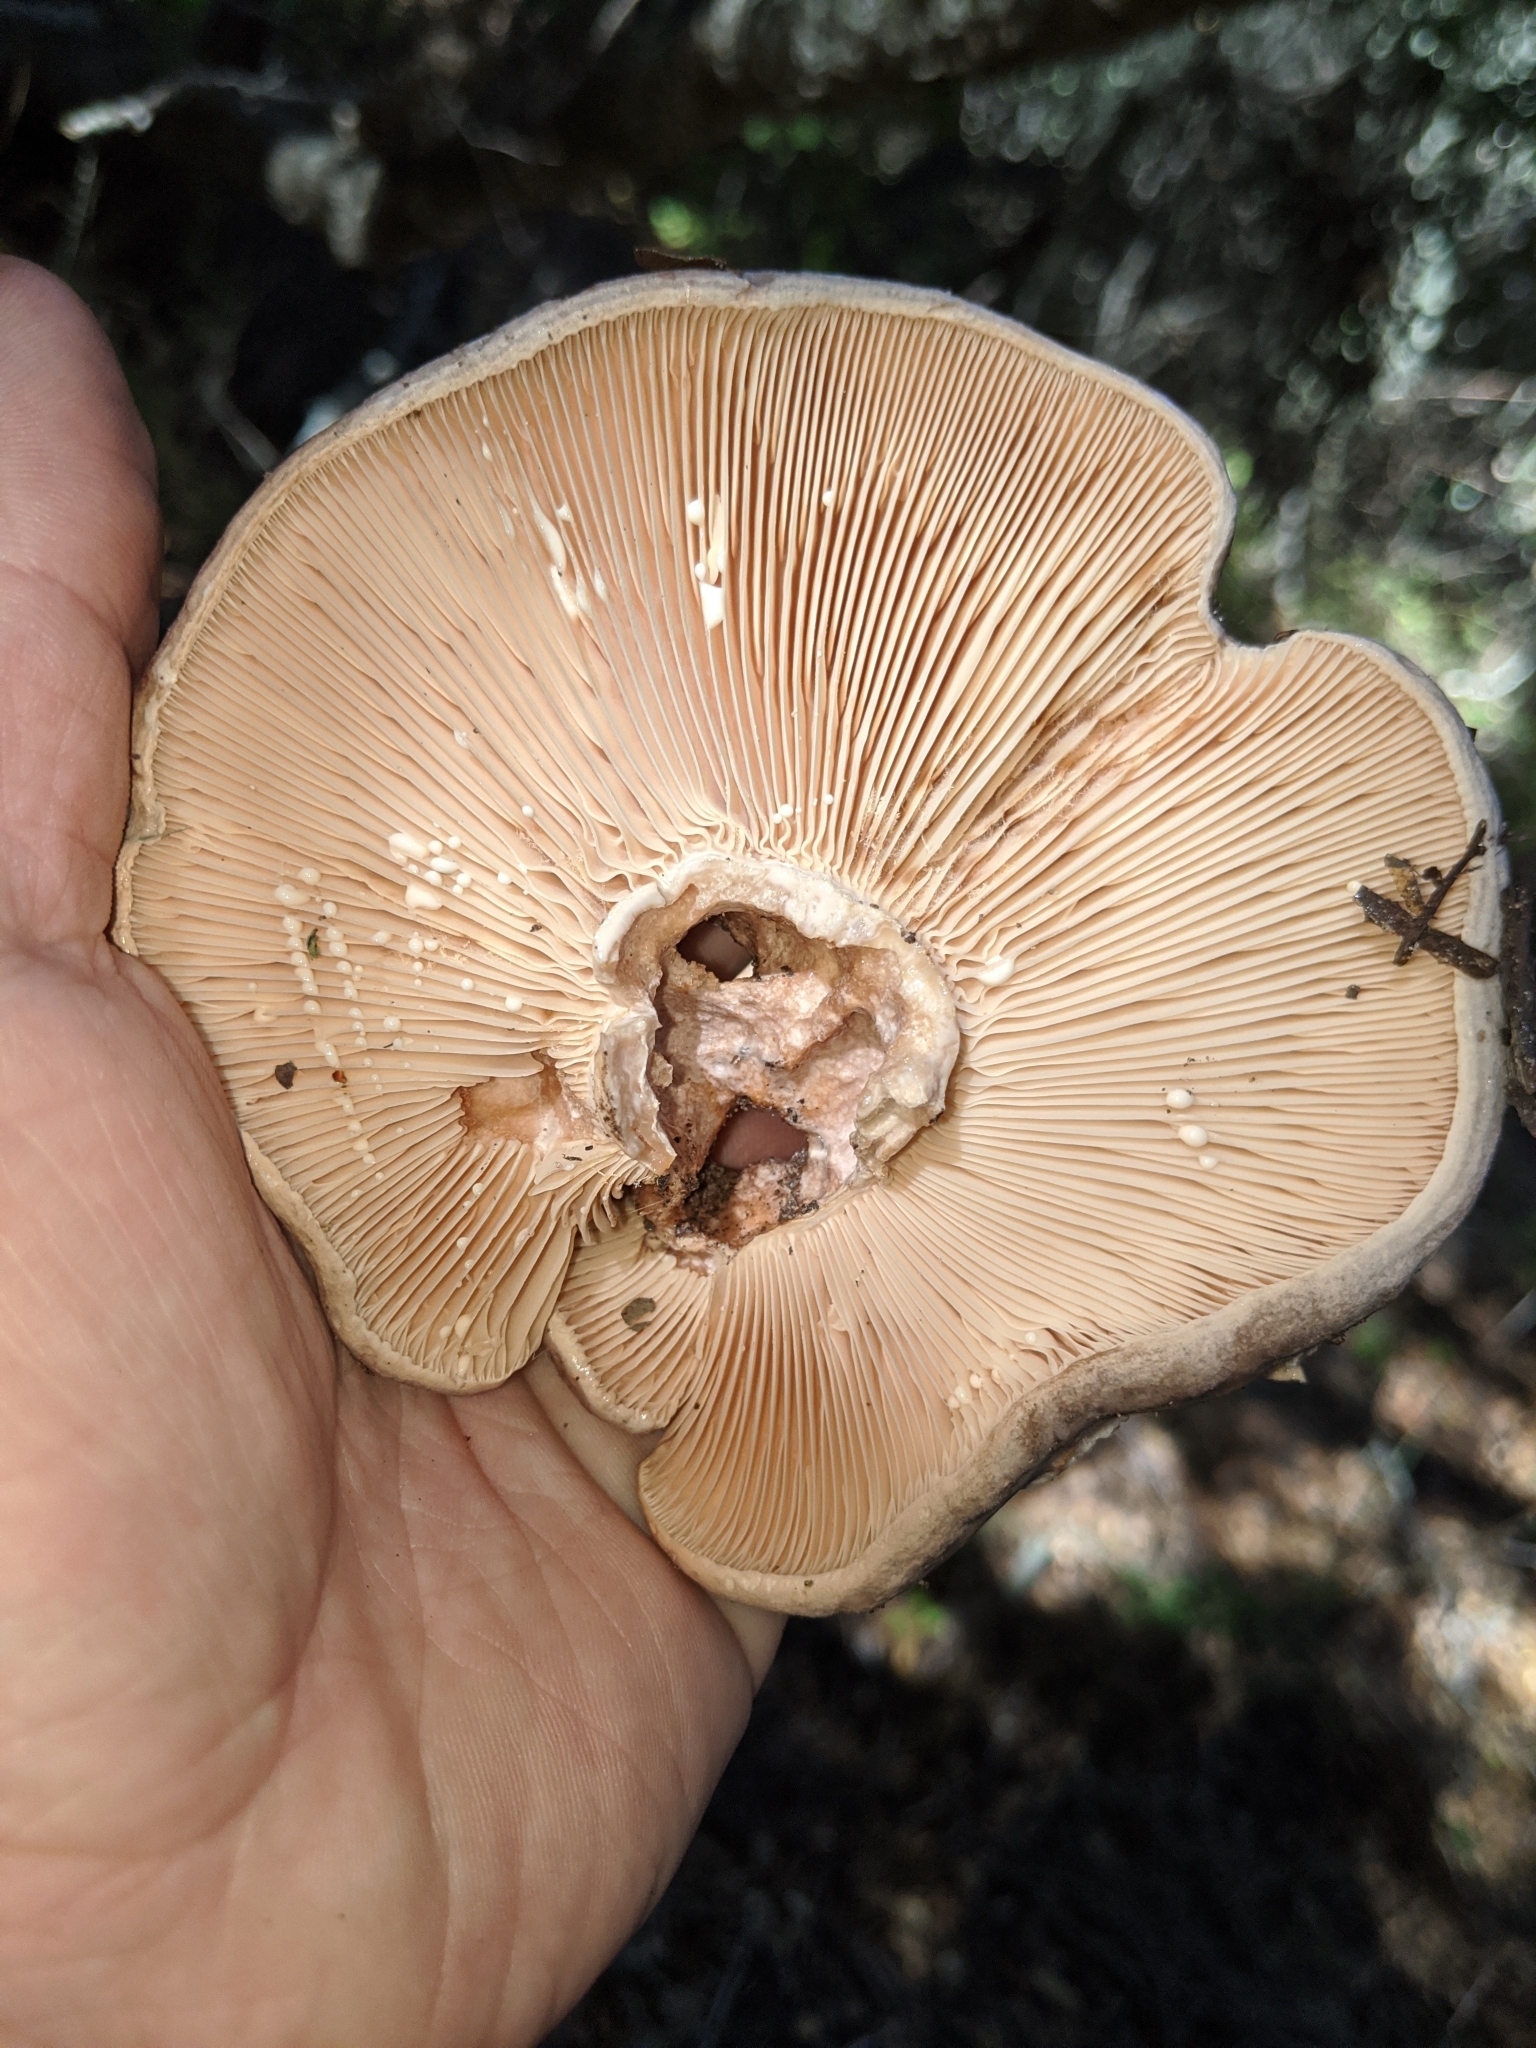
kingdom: Fungi
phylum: Basidiomycota
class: Agaricomycetes
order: Russulales
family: Russulaceae
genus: Lactarius
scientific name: Lactarius argillaceifolius
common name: Clay-gilled milkcap
